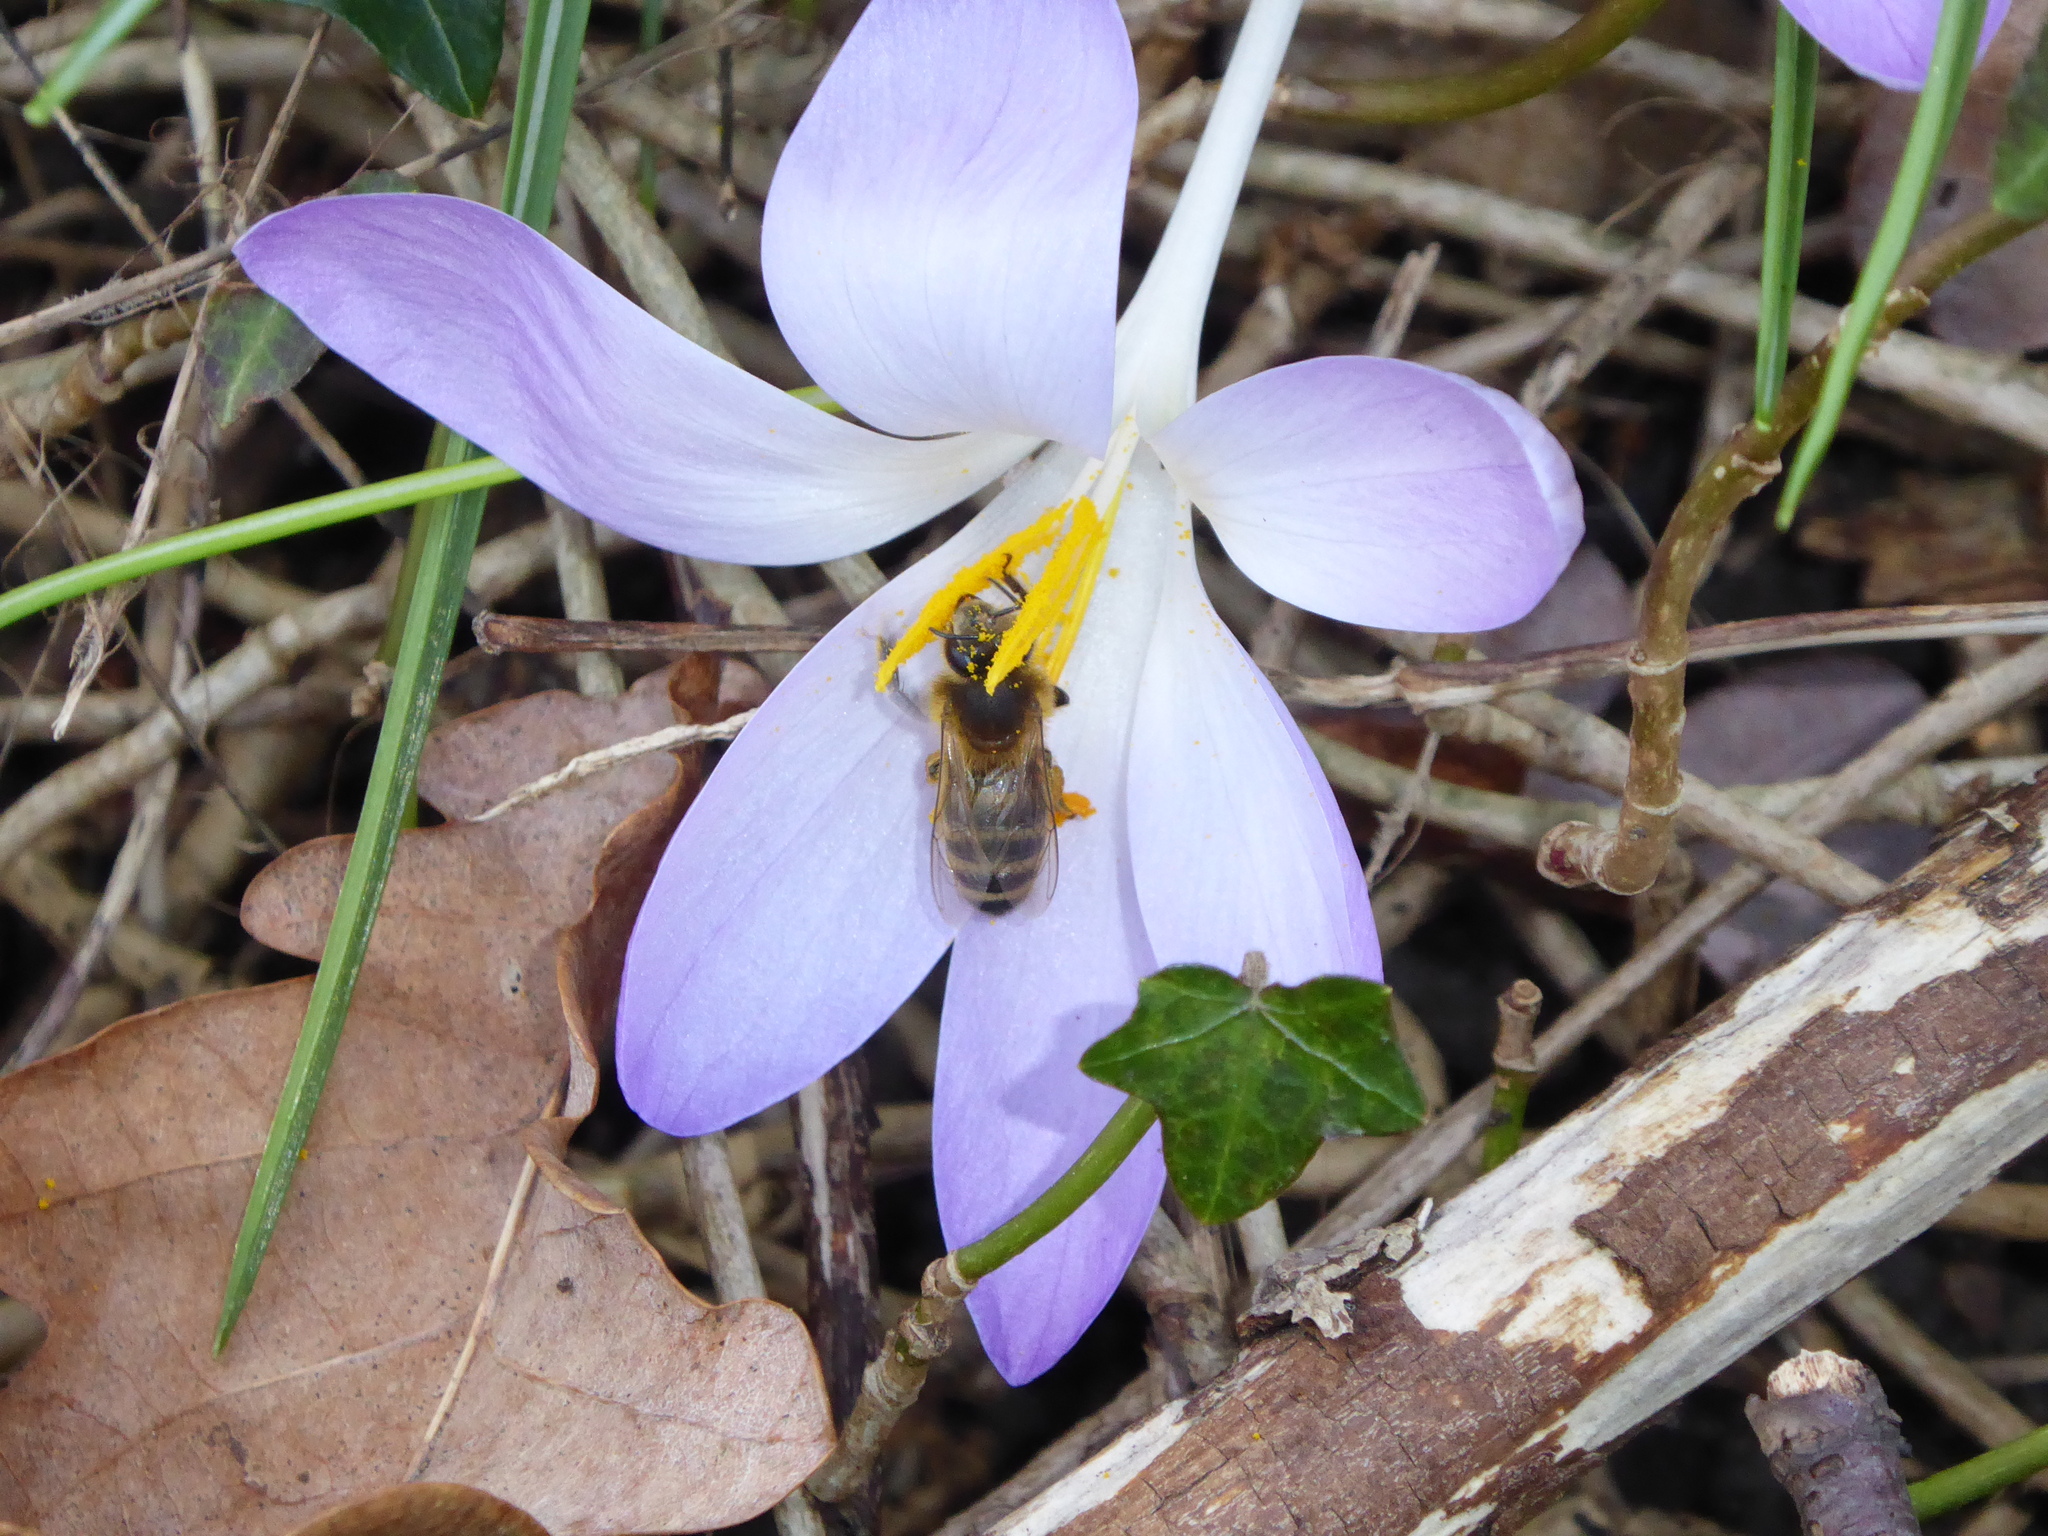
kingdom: Plantae
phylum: Tracheophyta
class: Liliopsida
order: Asparagales
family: Iridaceae
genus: Crocus
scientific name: Crocus tommasinianus
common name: Early crocus
